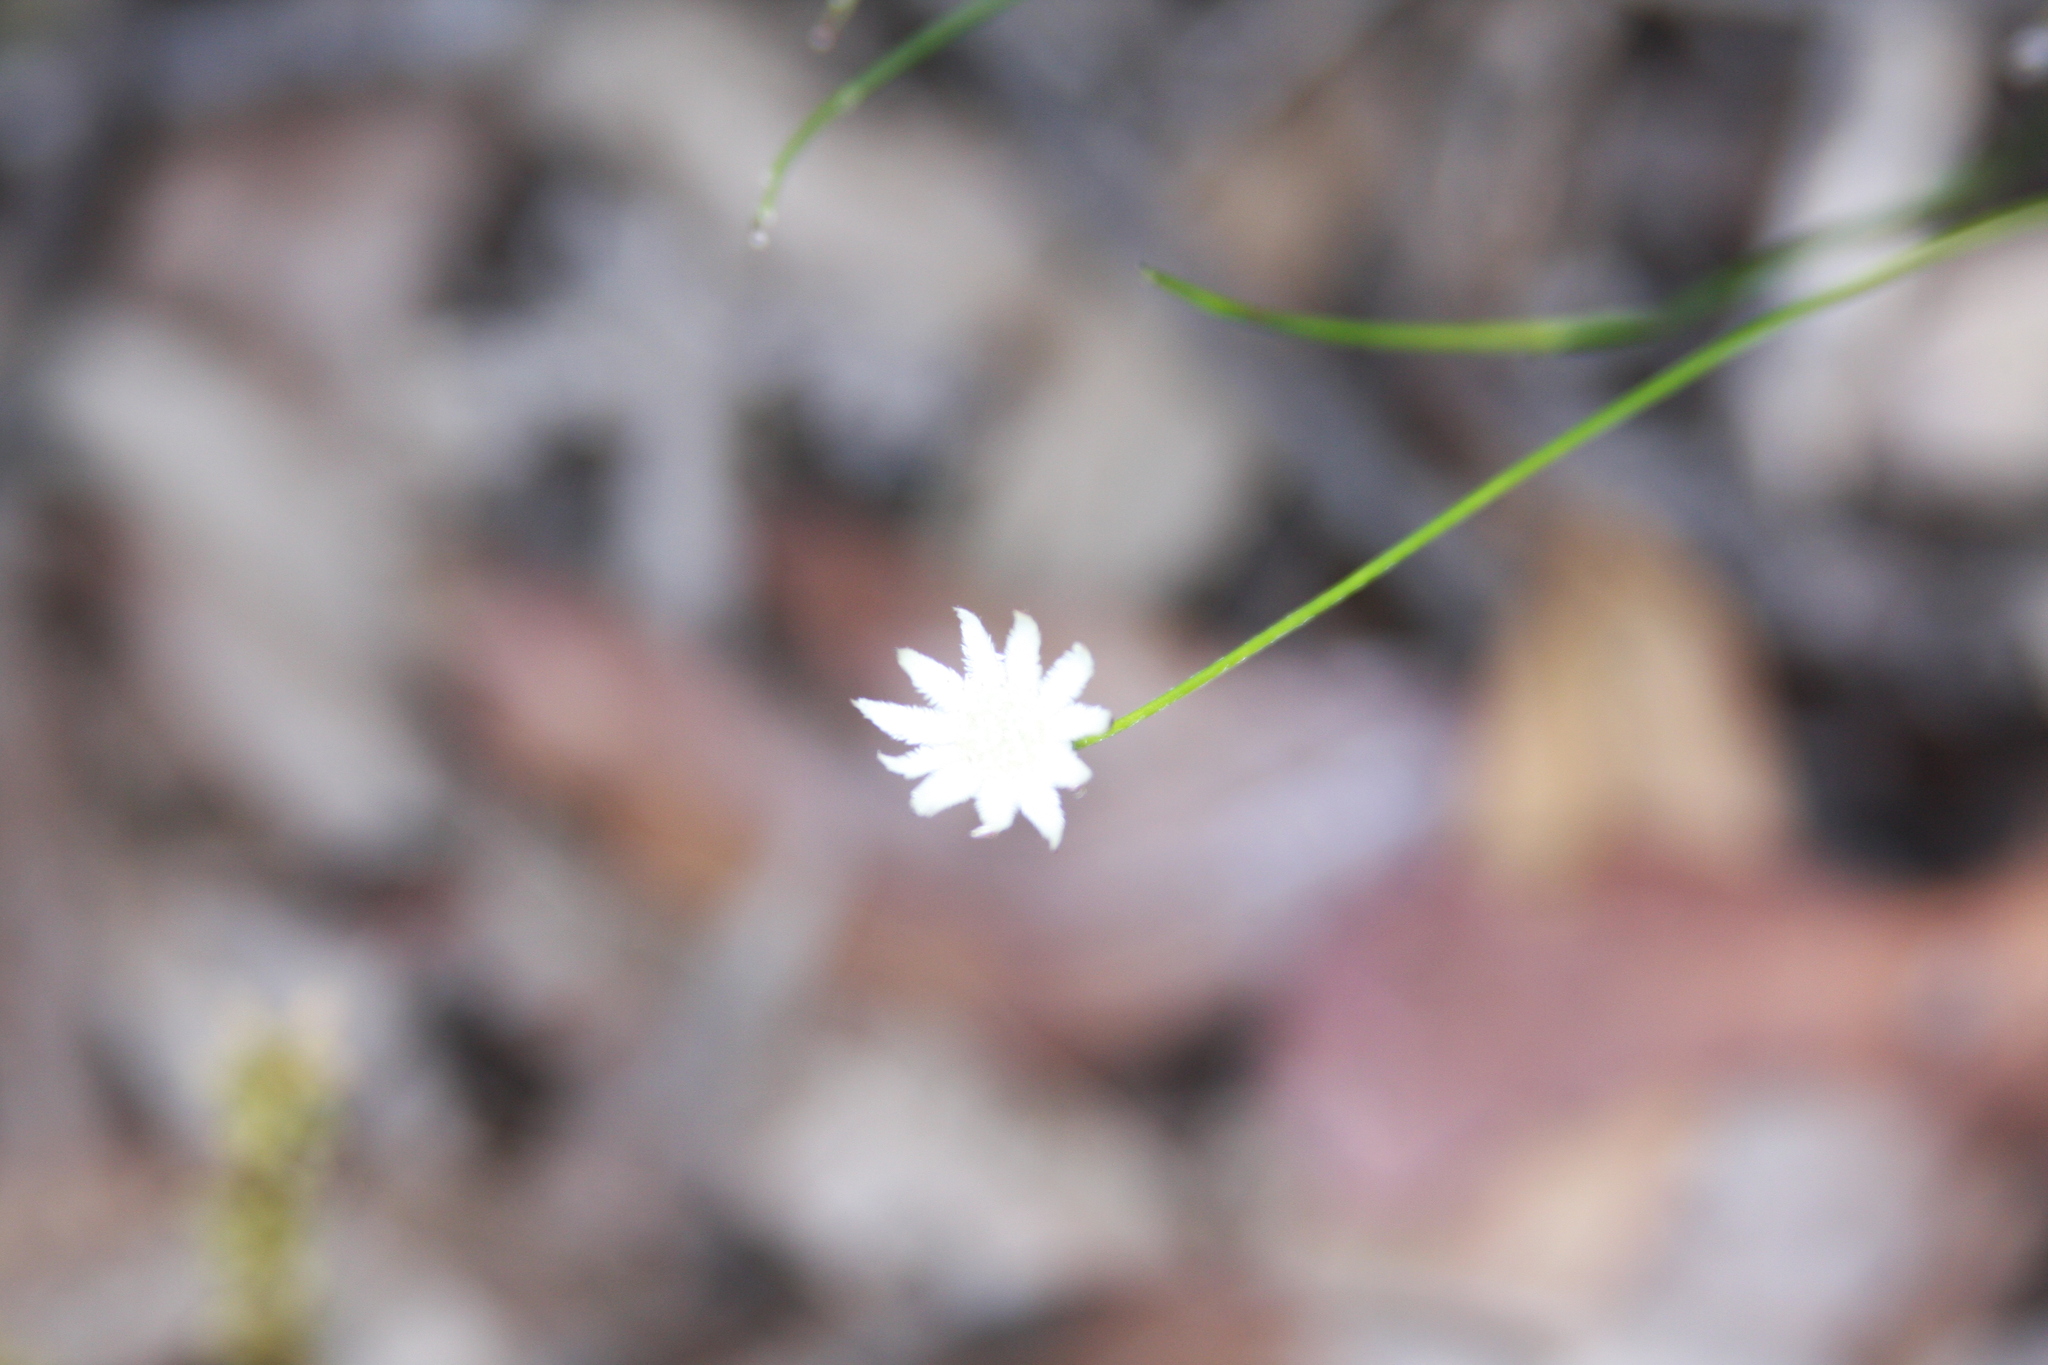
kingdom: Plantae
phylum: Tracheophyta
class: Magnoliopsida
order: Apiales
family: Apiaceae
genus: Actinotus
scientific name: Actinotus minor
